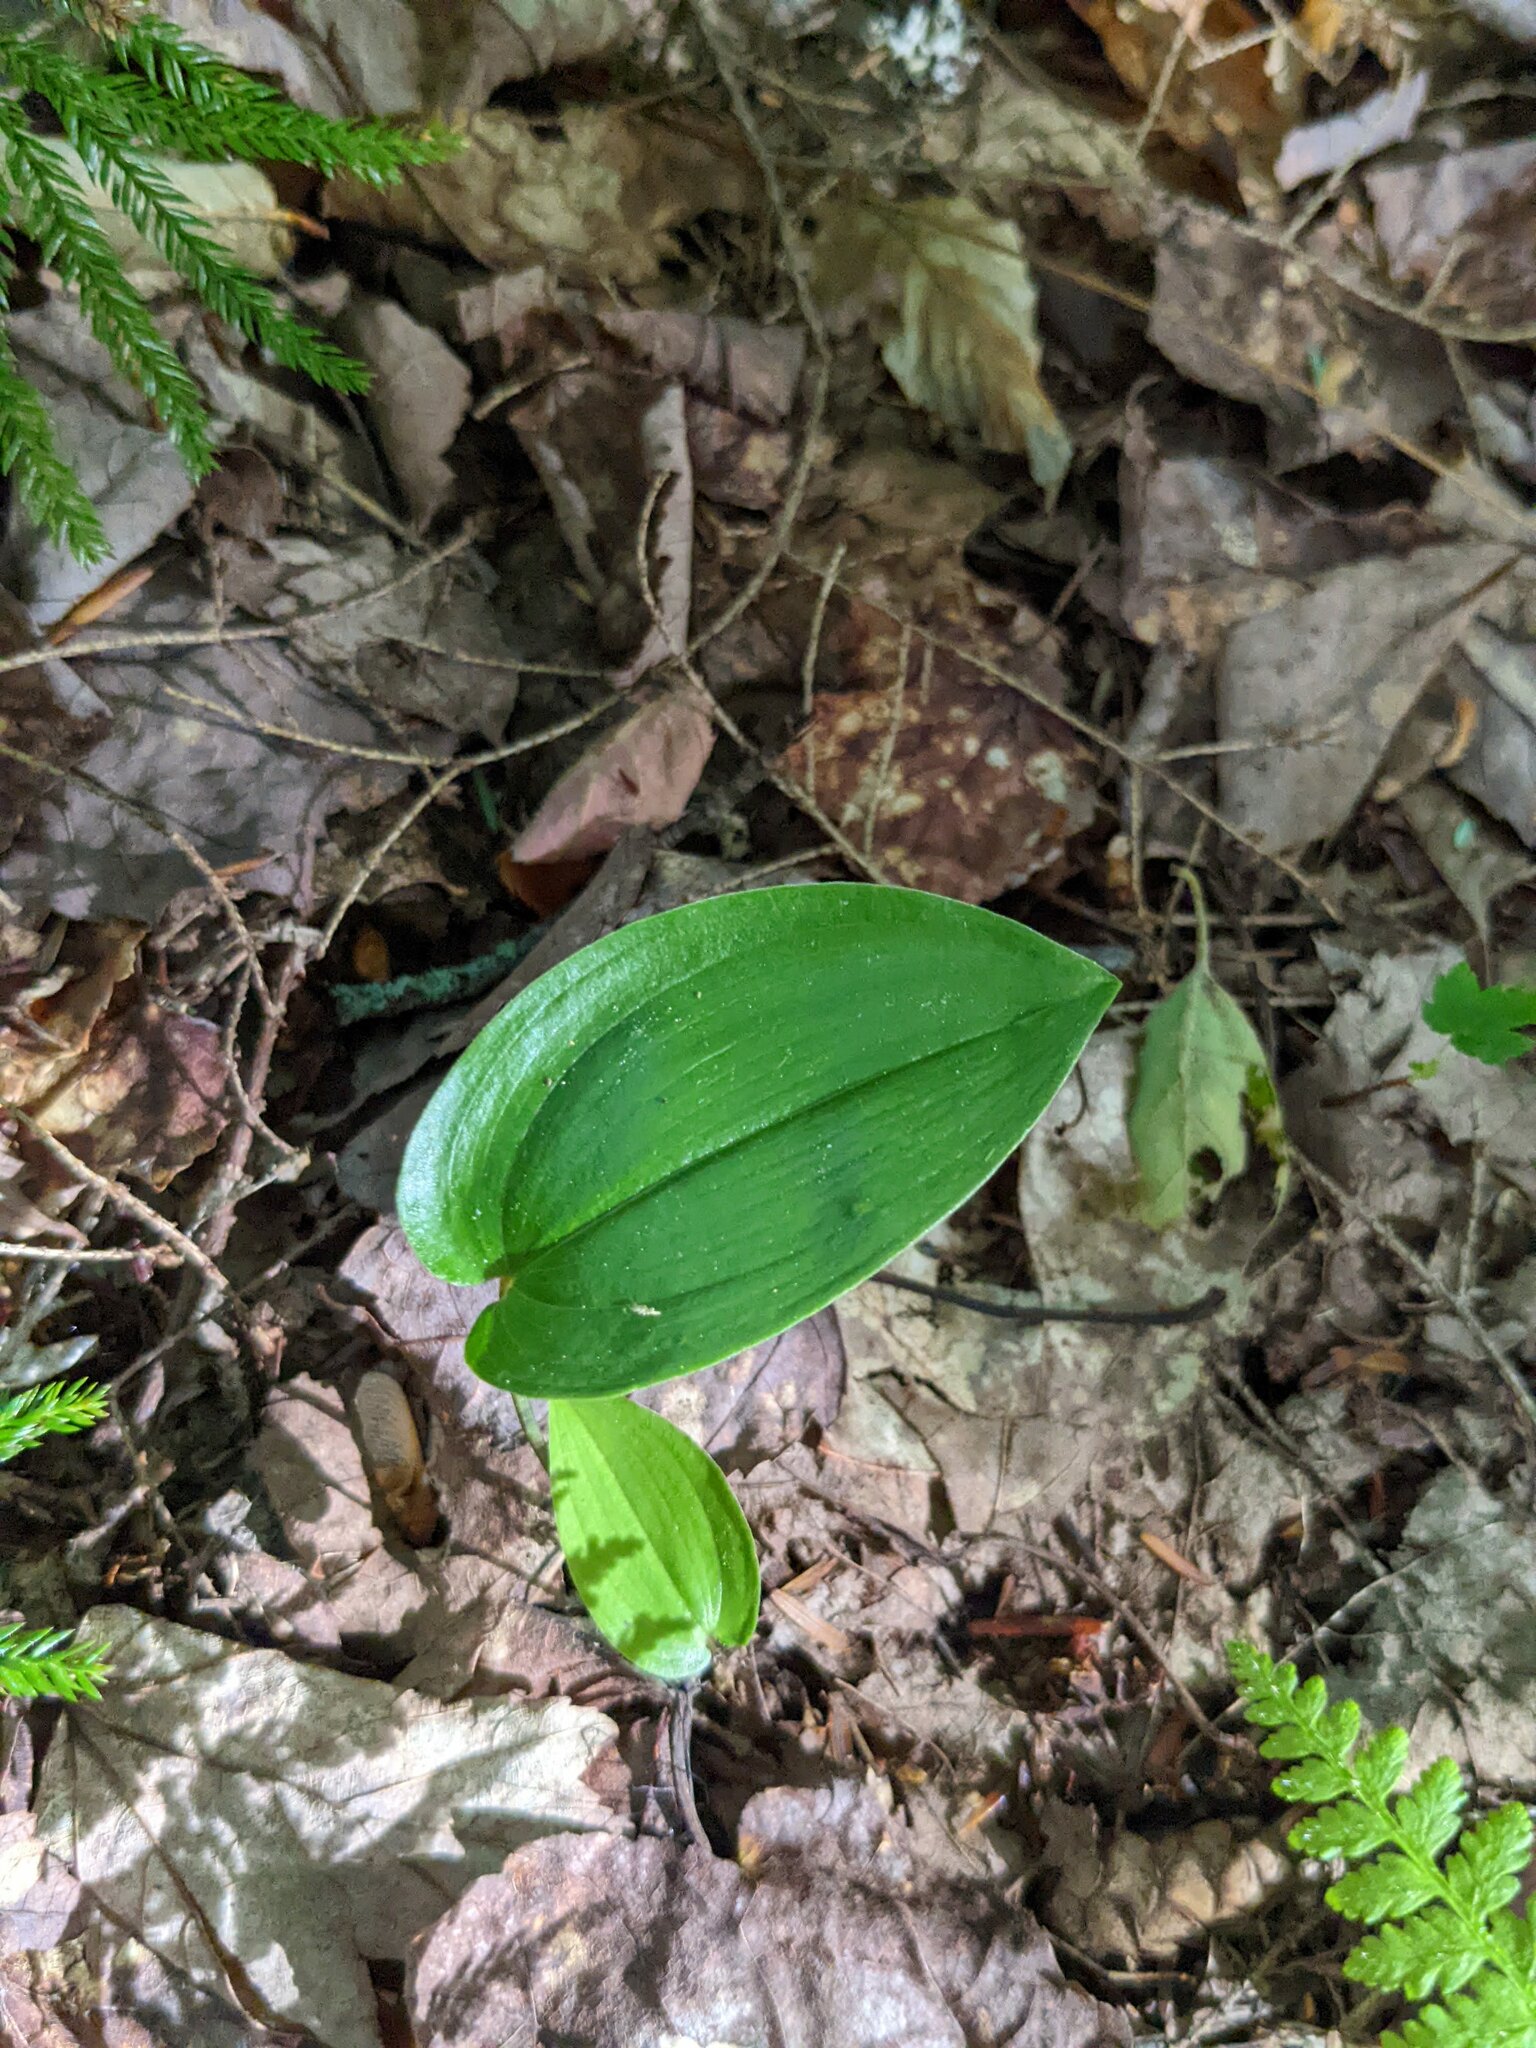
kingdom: Plantae
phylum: Tracheophyta
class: Liliopsida
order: Asparagales
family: Asparagaceae
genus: Maianthemum
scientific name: Maianthemum canadense
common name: False lily-of-the-valley
